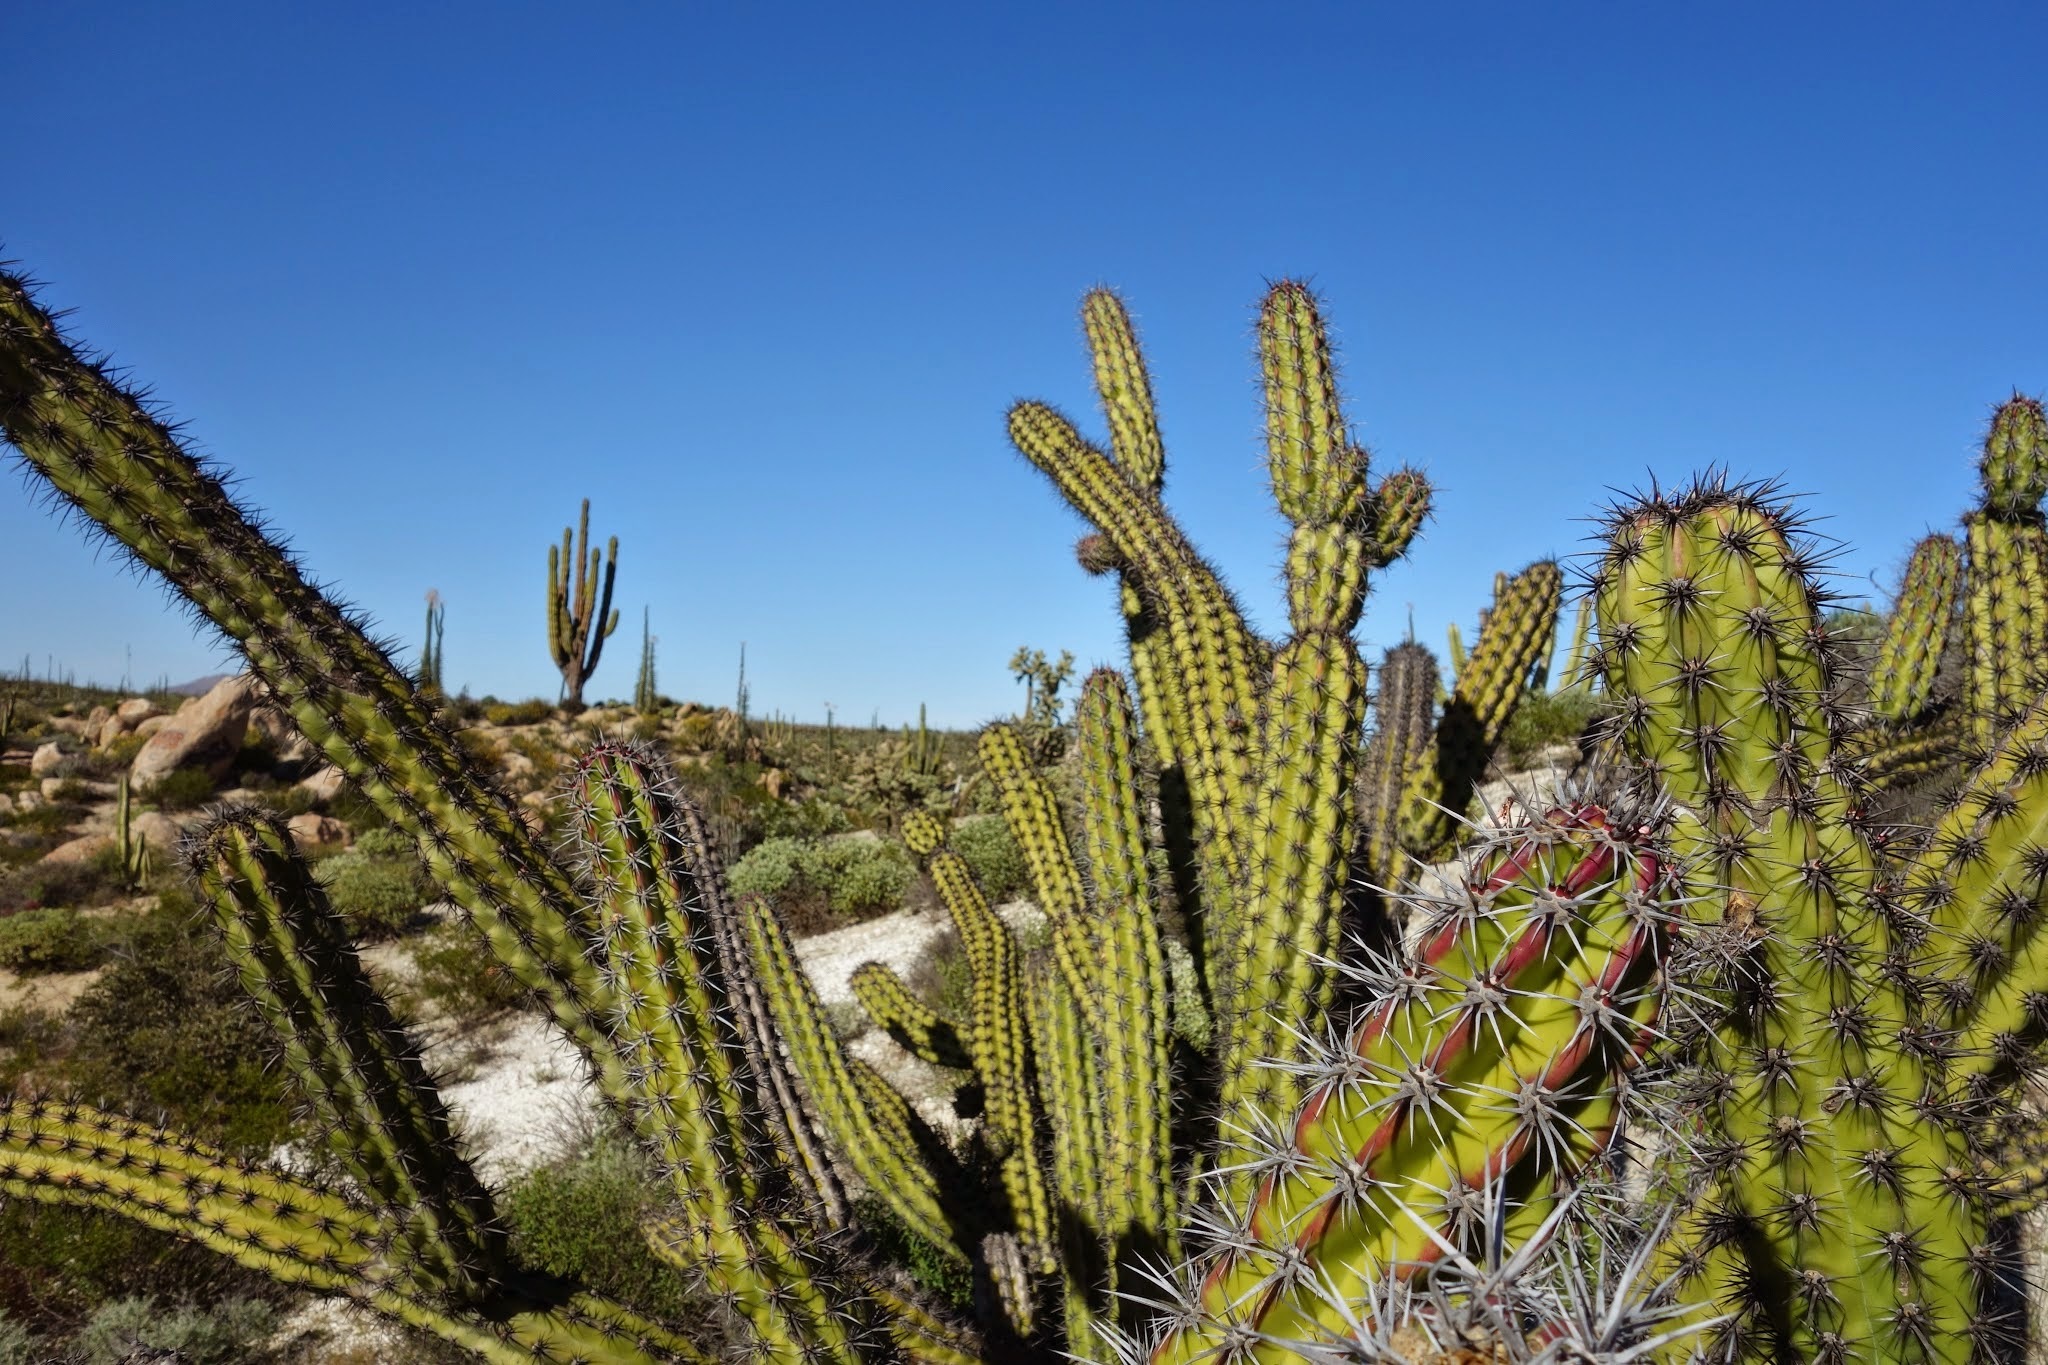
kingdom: Plantae
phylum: Tracheophyta
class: Magnoliopsida
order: Caryophyllales
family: Cactaceae
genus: Stenocereus
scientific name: Stenocereus gummosus
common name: Dagger cactus
